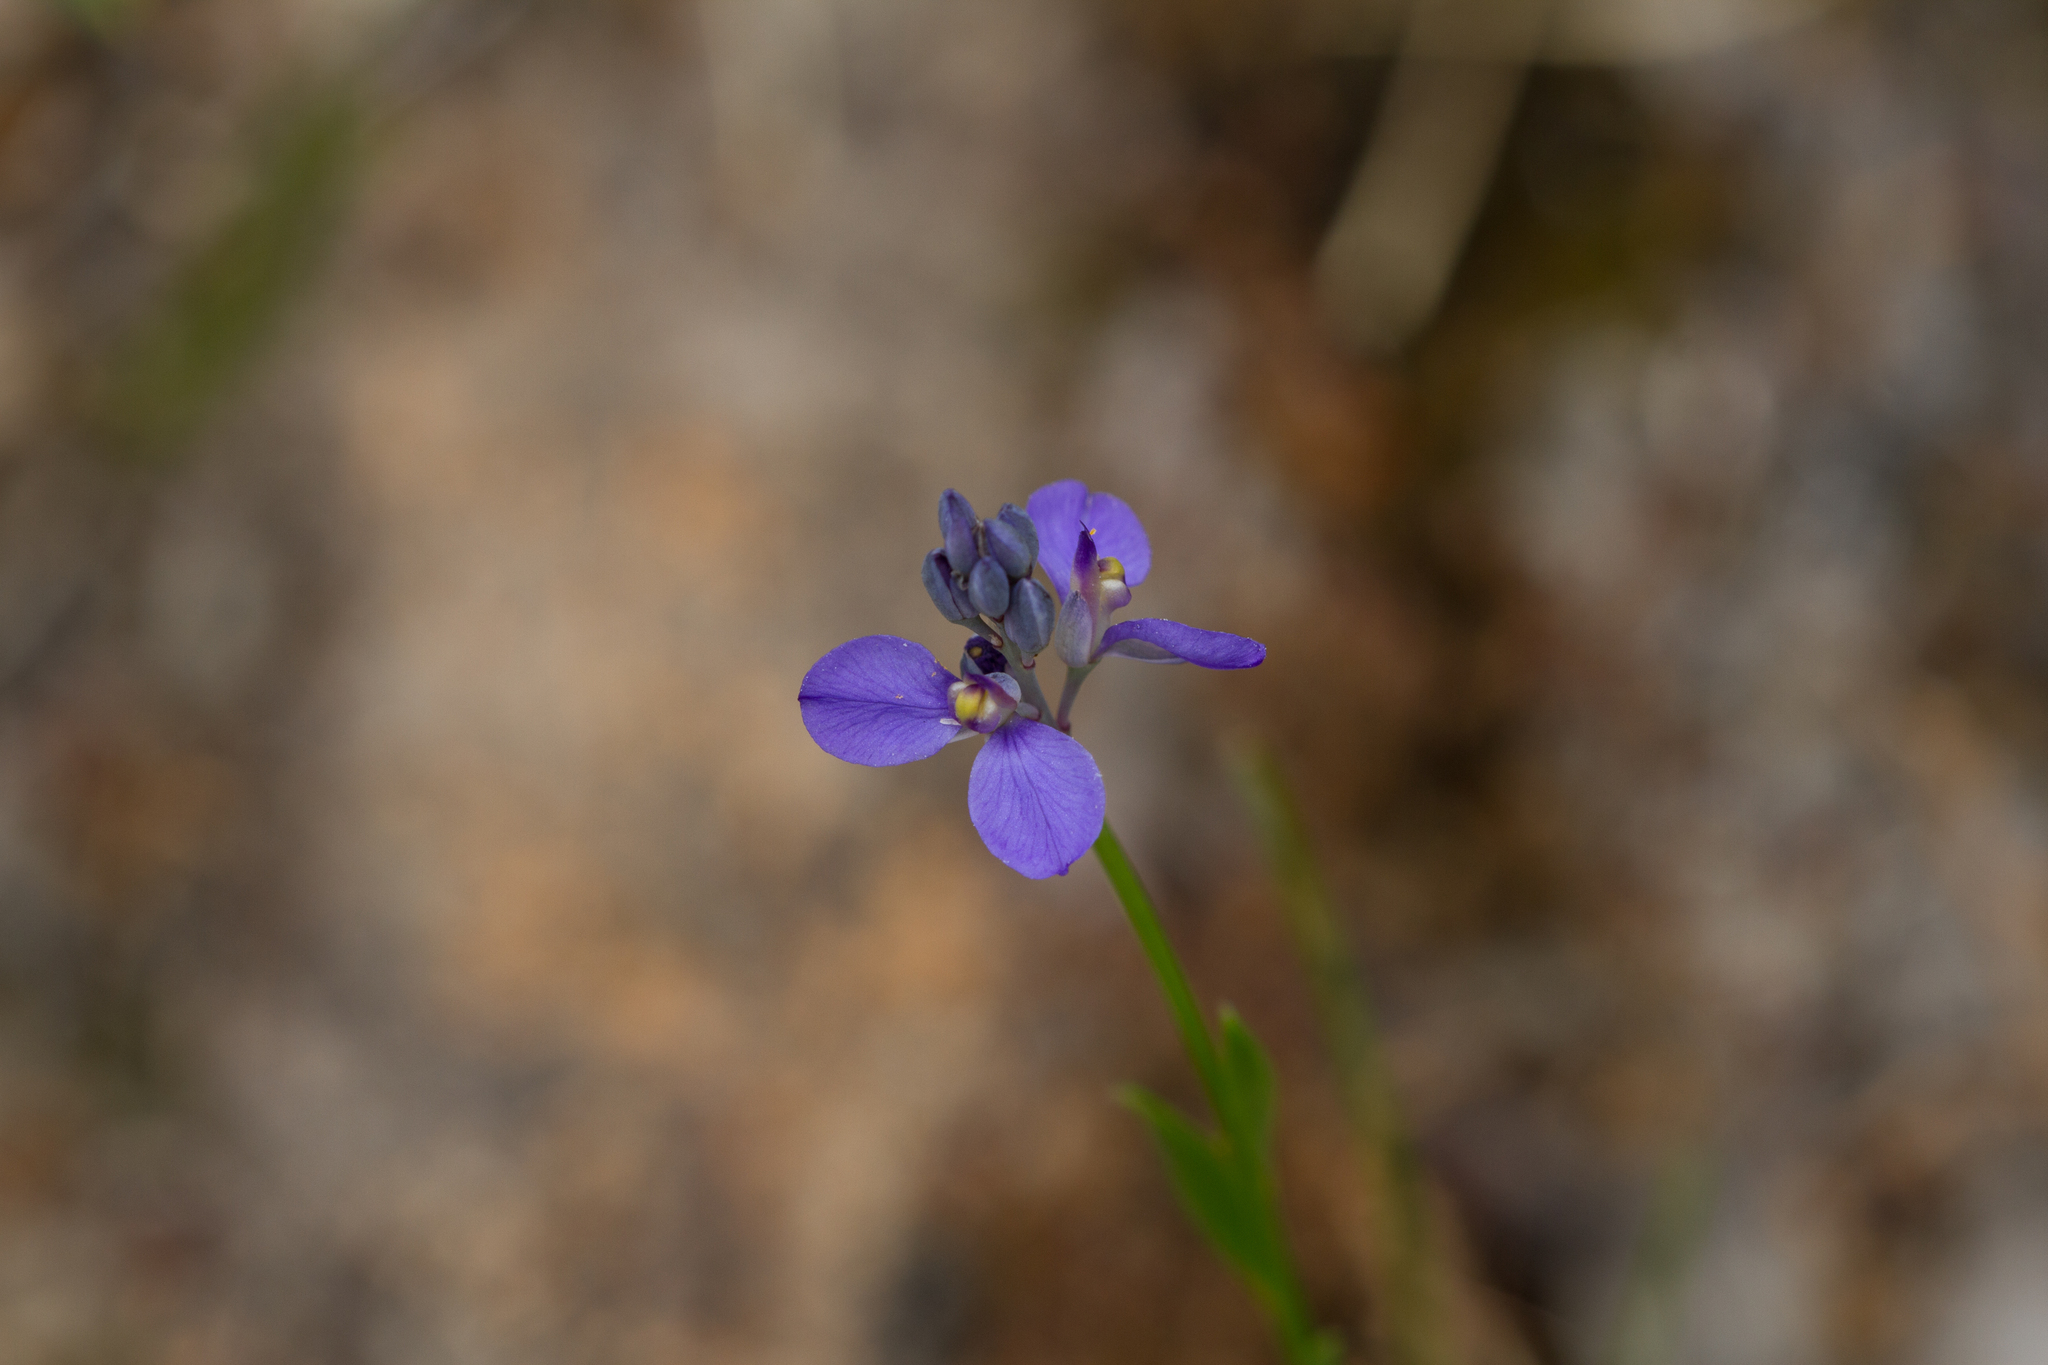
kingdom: Plantae
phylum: Tracheophyta
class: Magnoliopsida
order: Fabales
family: Polygalaceae
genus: Comesperma
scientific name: Comesperma calymega
